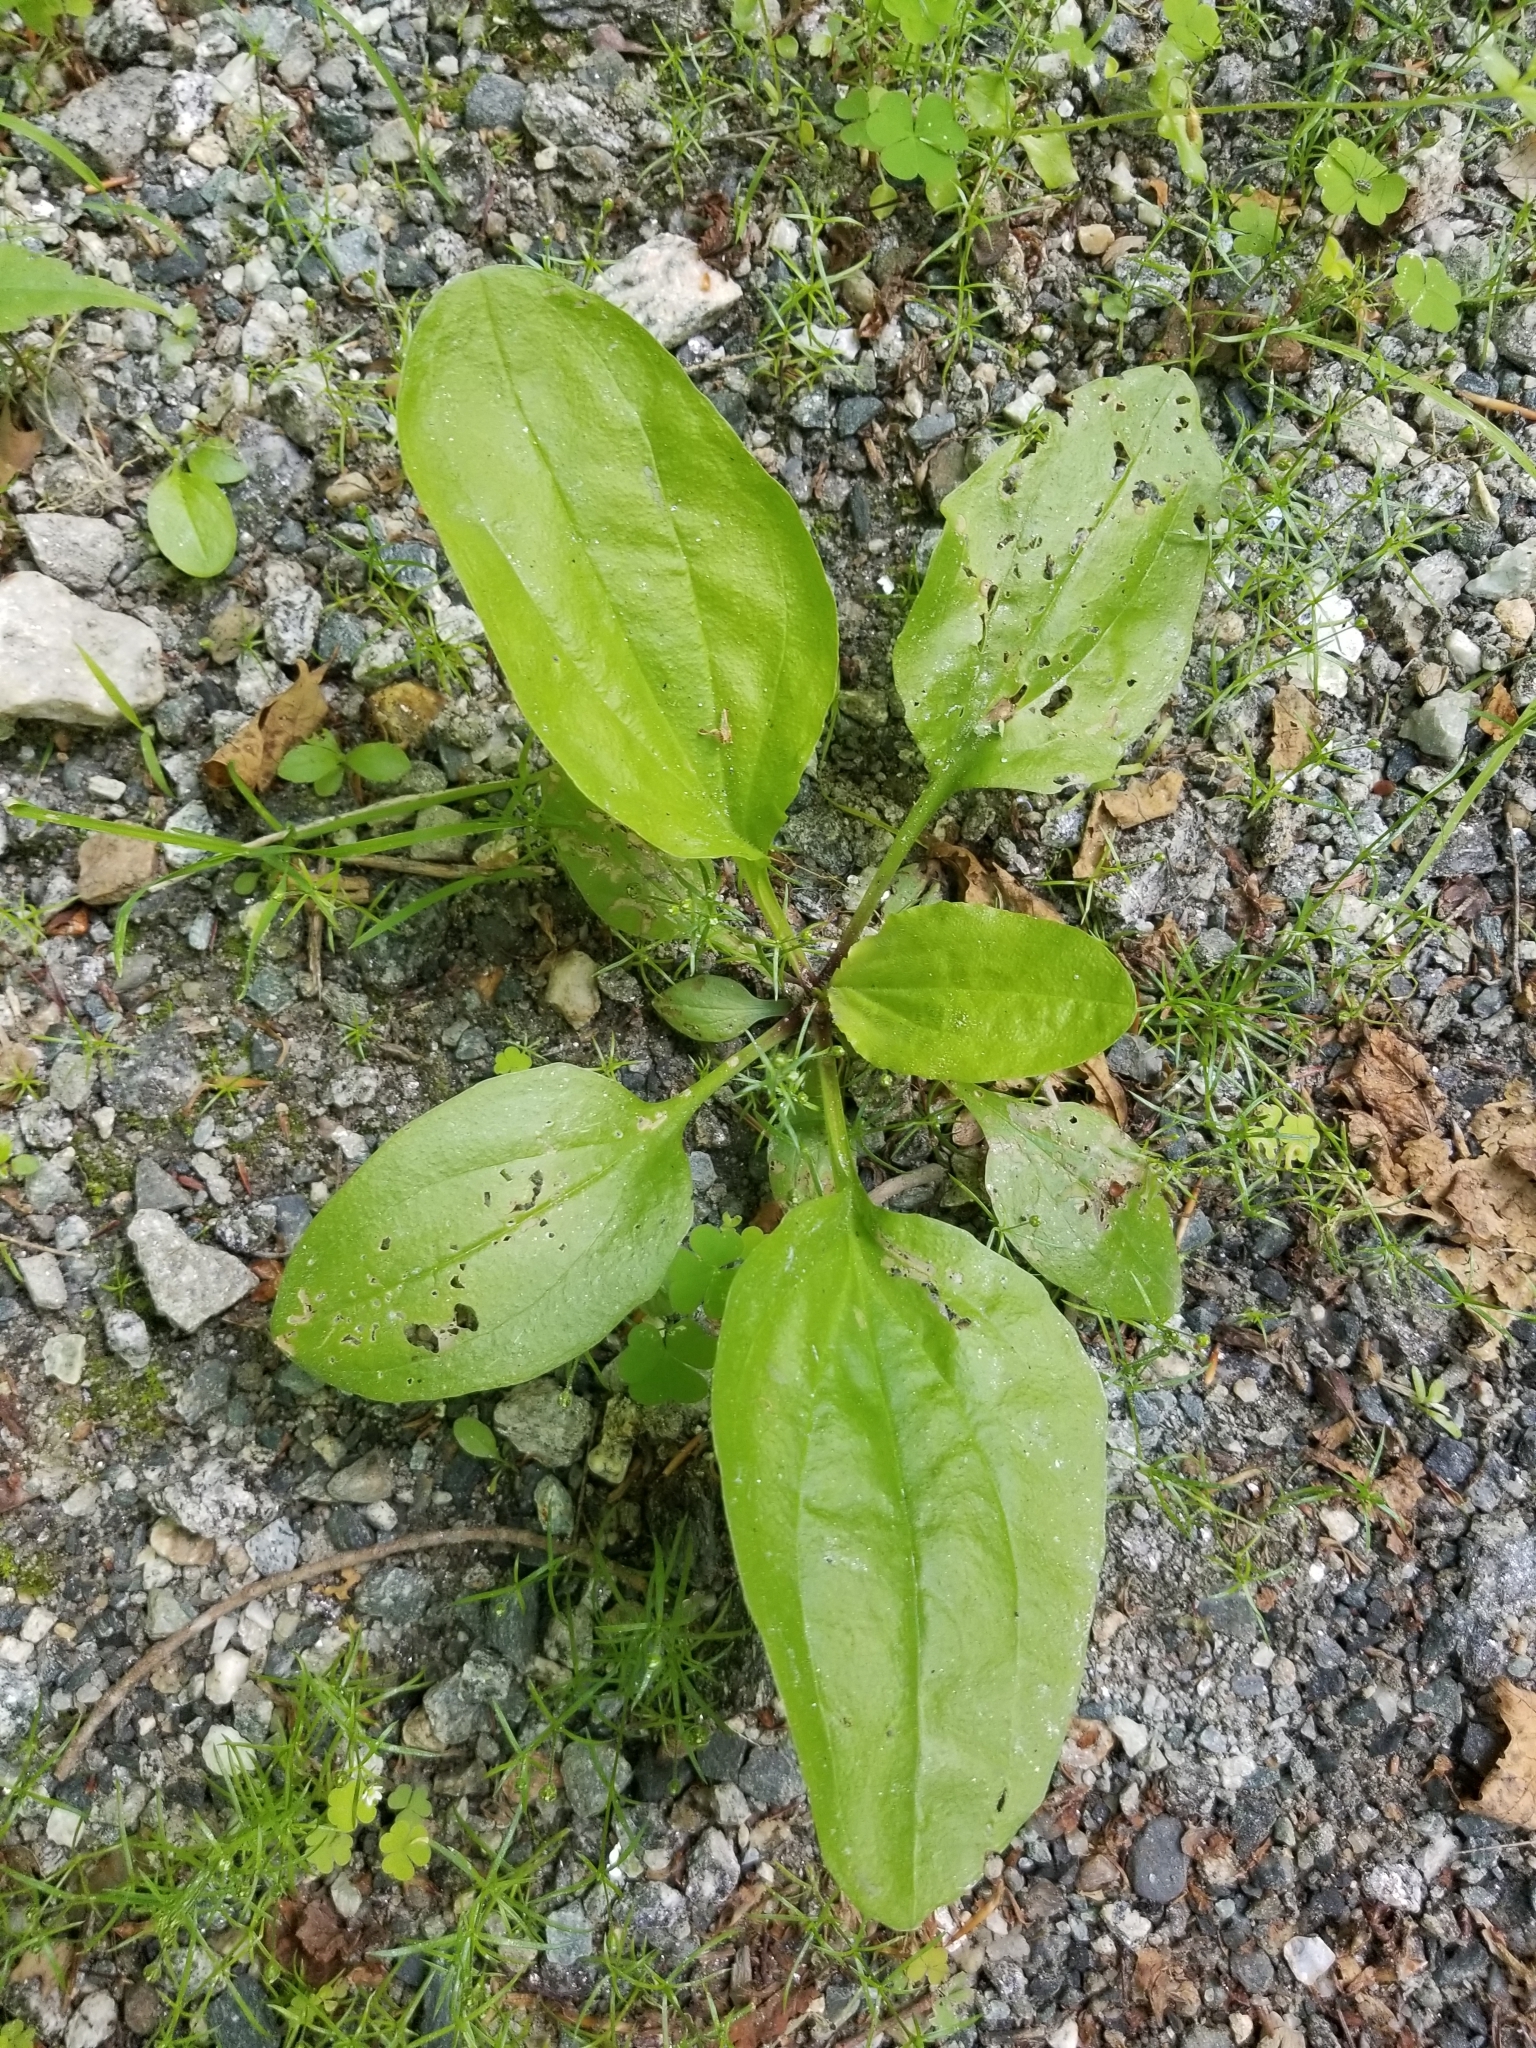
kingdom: Plantae
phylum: Tracheophyta
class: Magnoliopsida
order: Lamiales
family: Plantaginaceae
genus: Plantago
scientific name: Plantago rugelii
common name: American plantain
